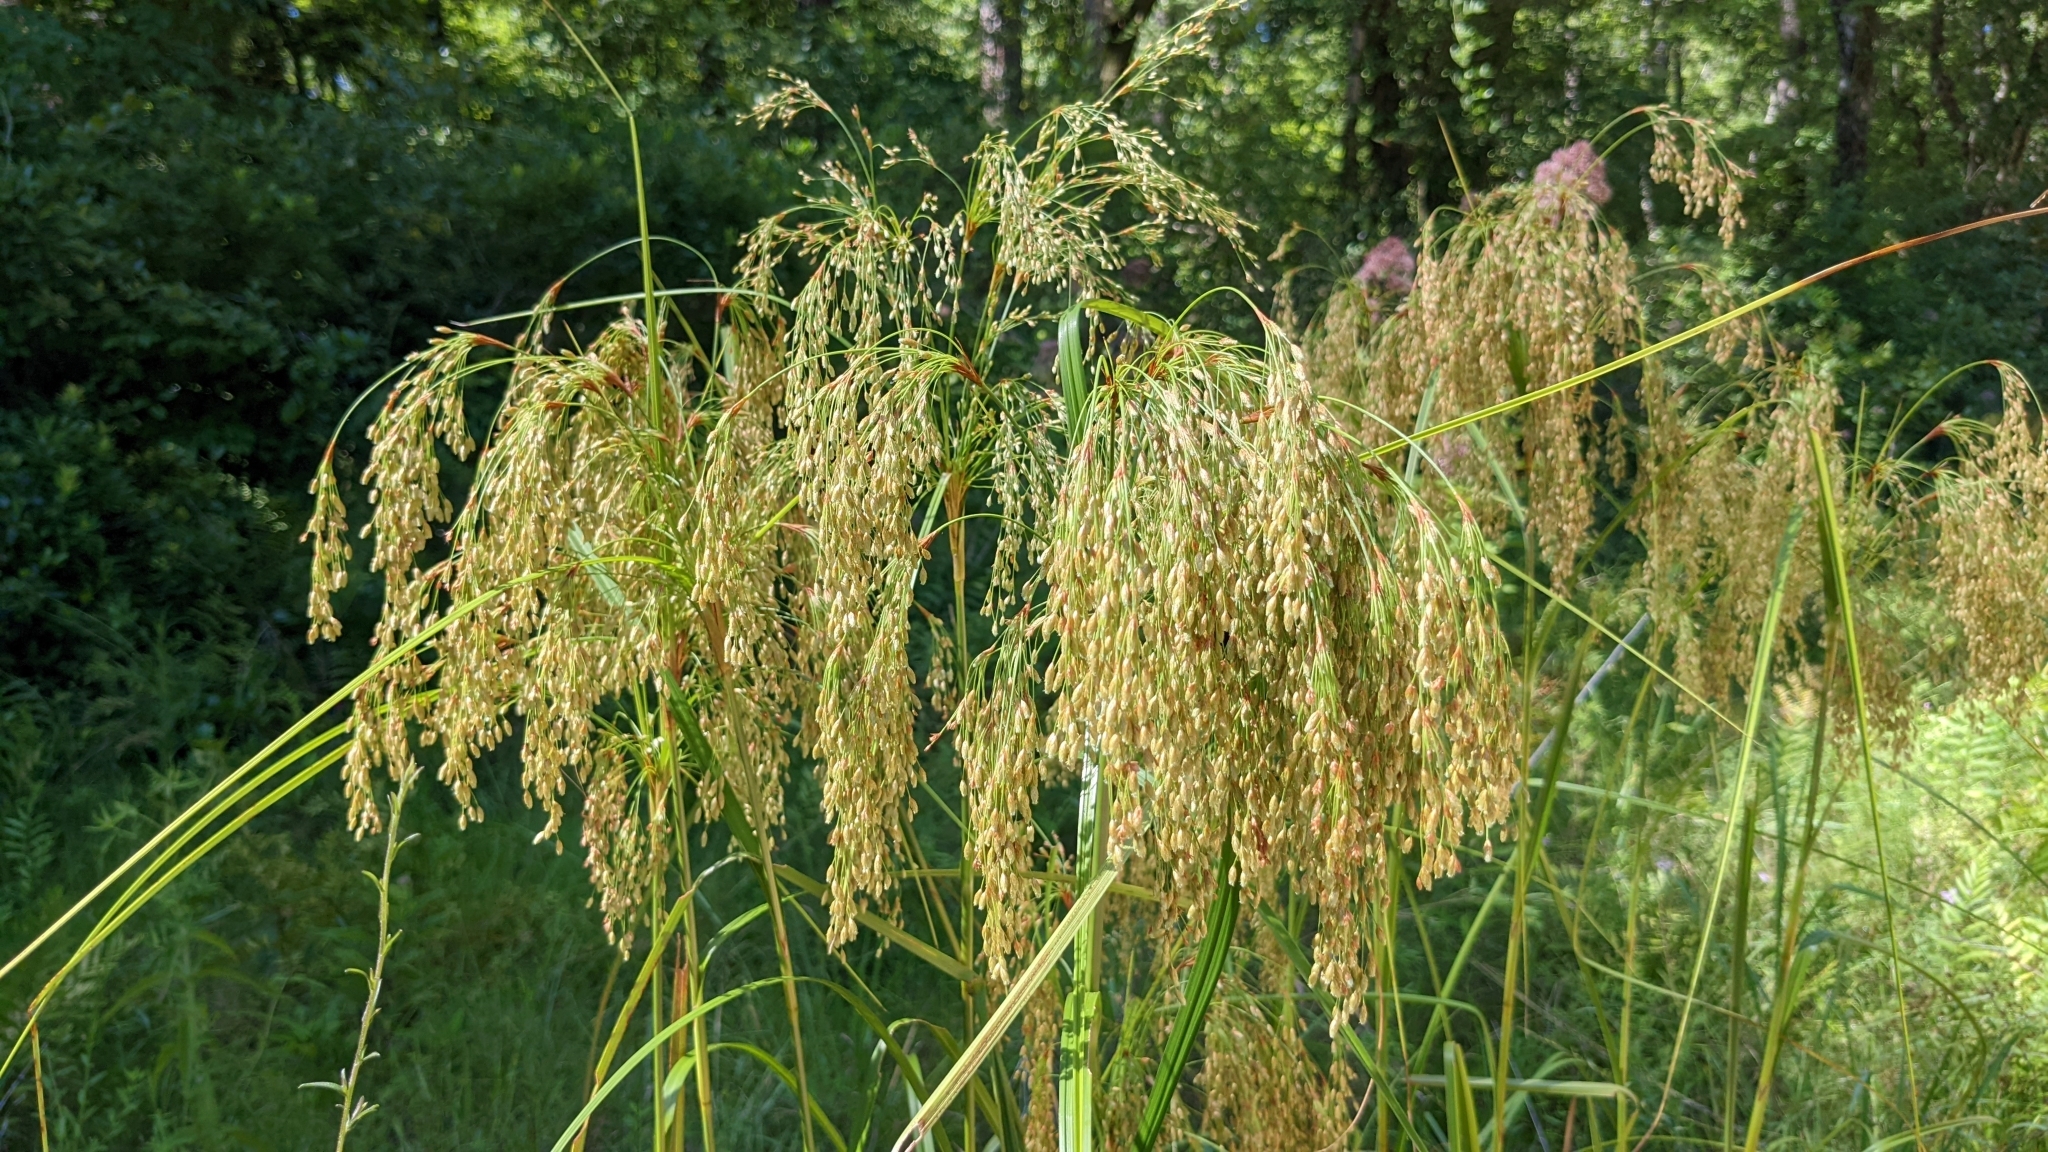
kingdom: Plantae
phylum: Tracheophyta
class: Liliopsida
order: Poales
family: Cyperaceae
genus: Scirpus
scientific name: Scirpus cyperinus
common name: Black-sheathed bulrush
